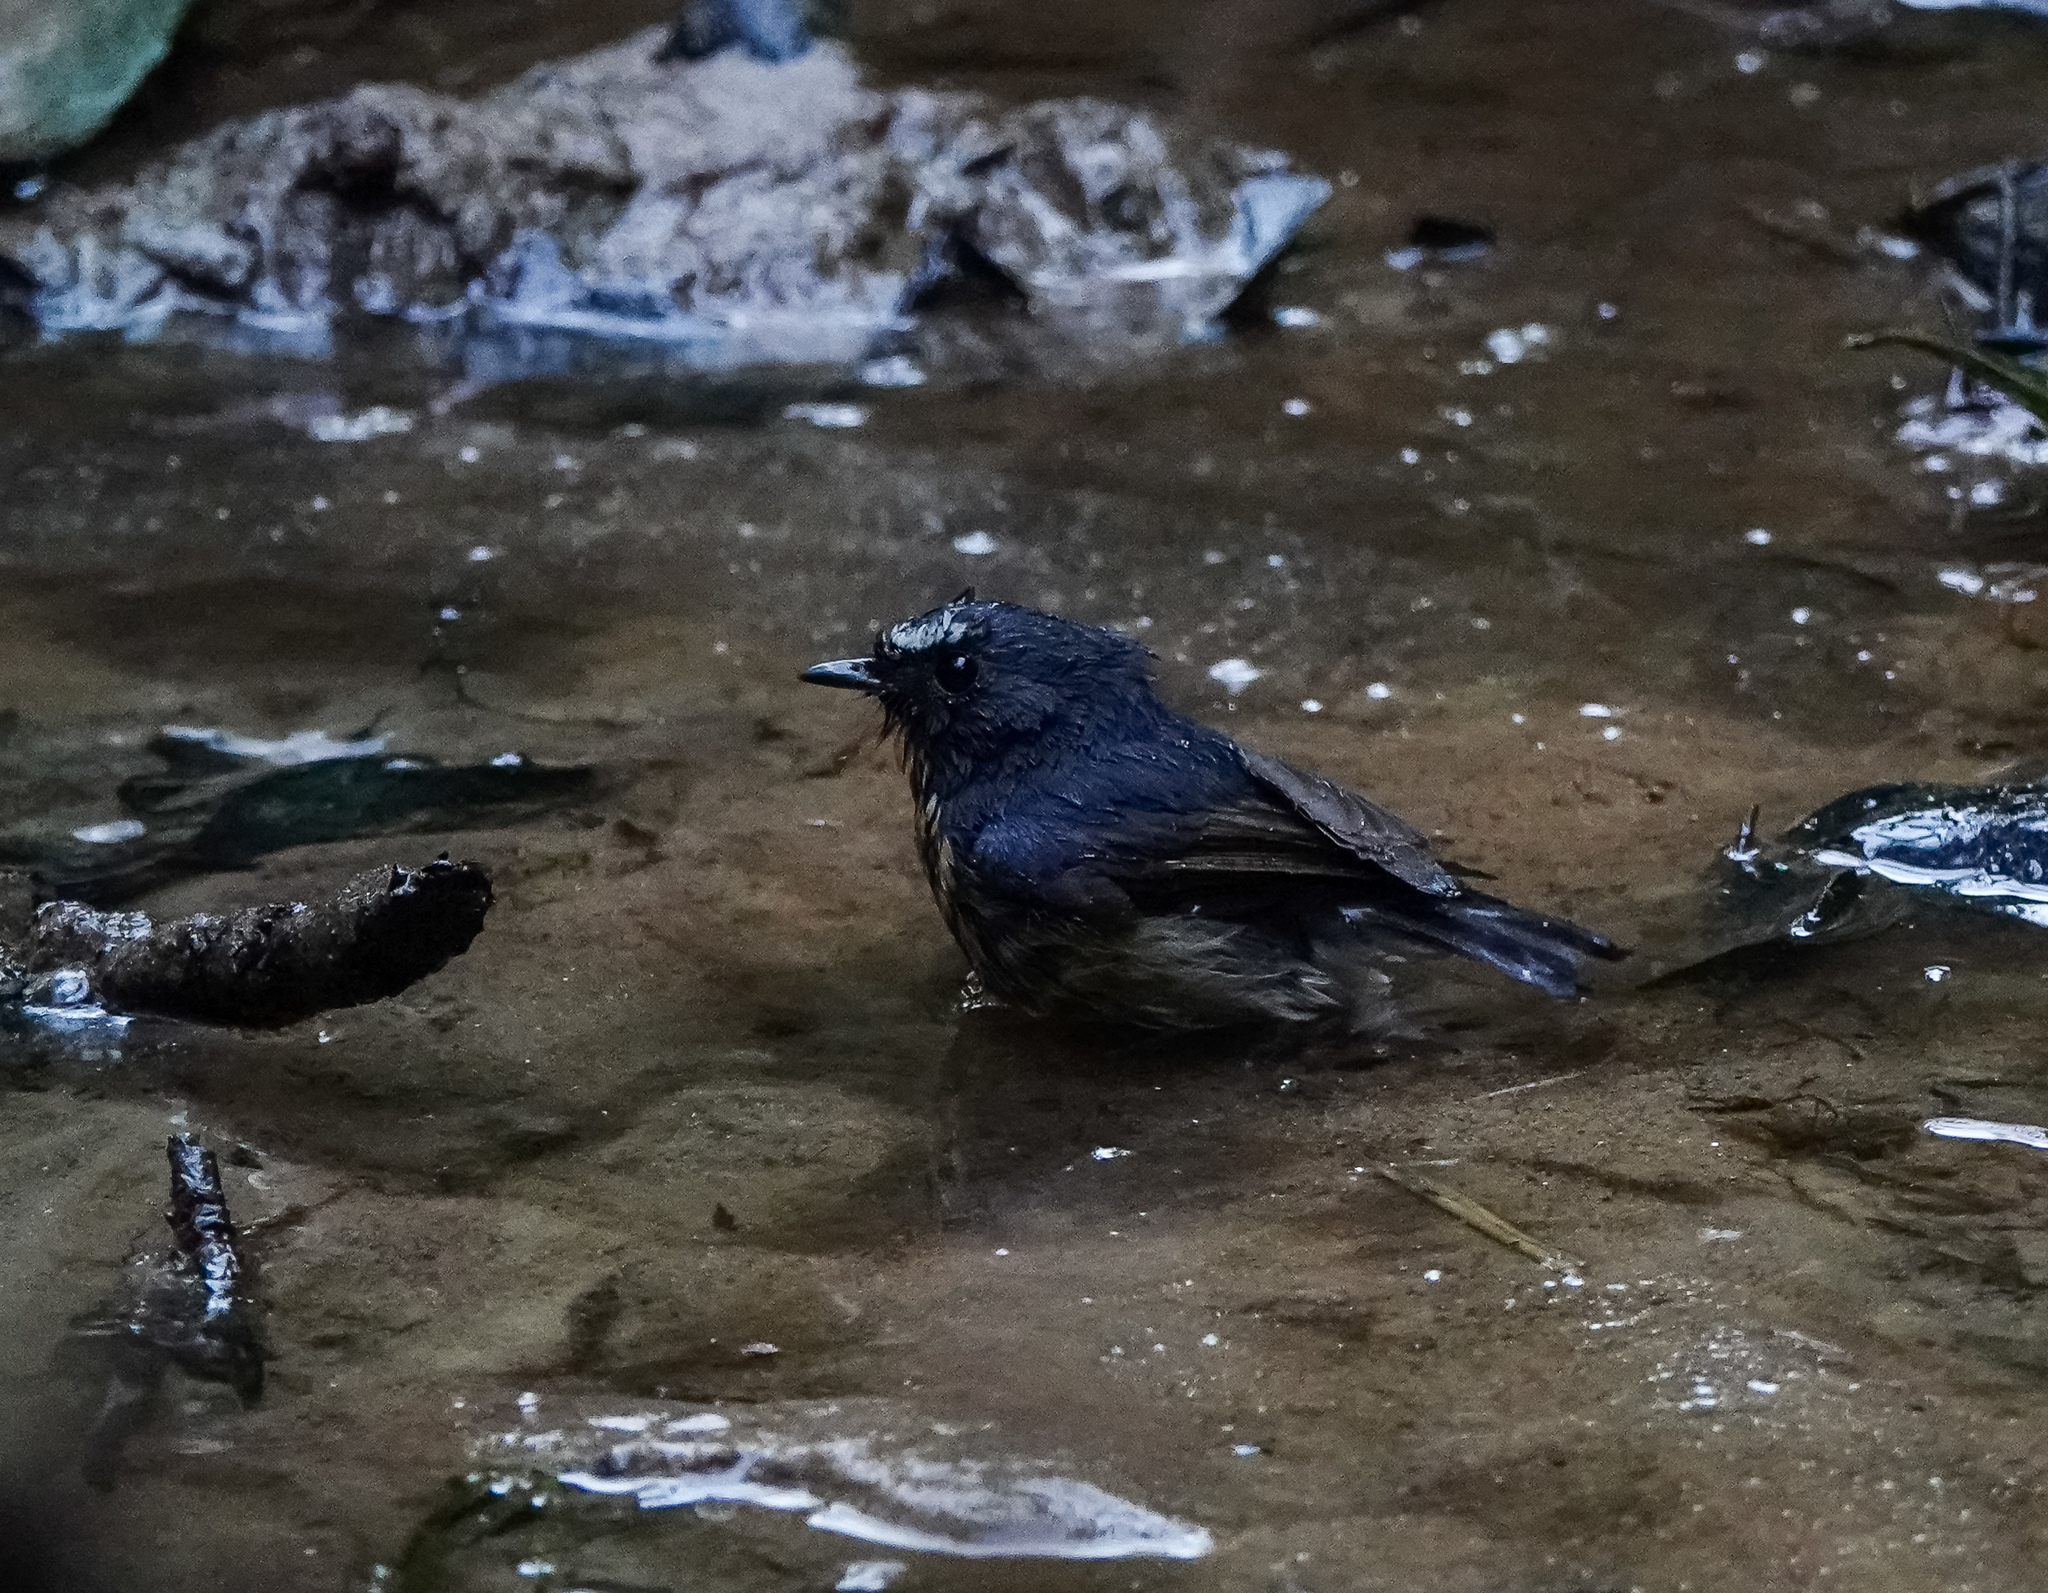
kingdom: Animalia
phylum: Chordata
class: Aves
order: Passeriformes
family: Muscicapidae
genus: Ficedula
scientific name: Ficedula hyperythra
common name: Snowy-browed flycatcher
